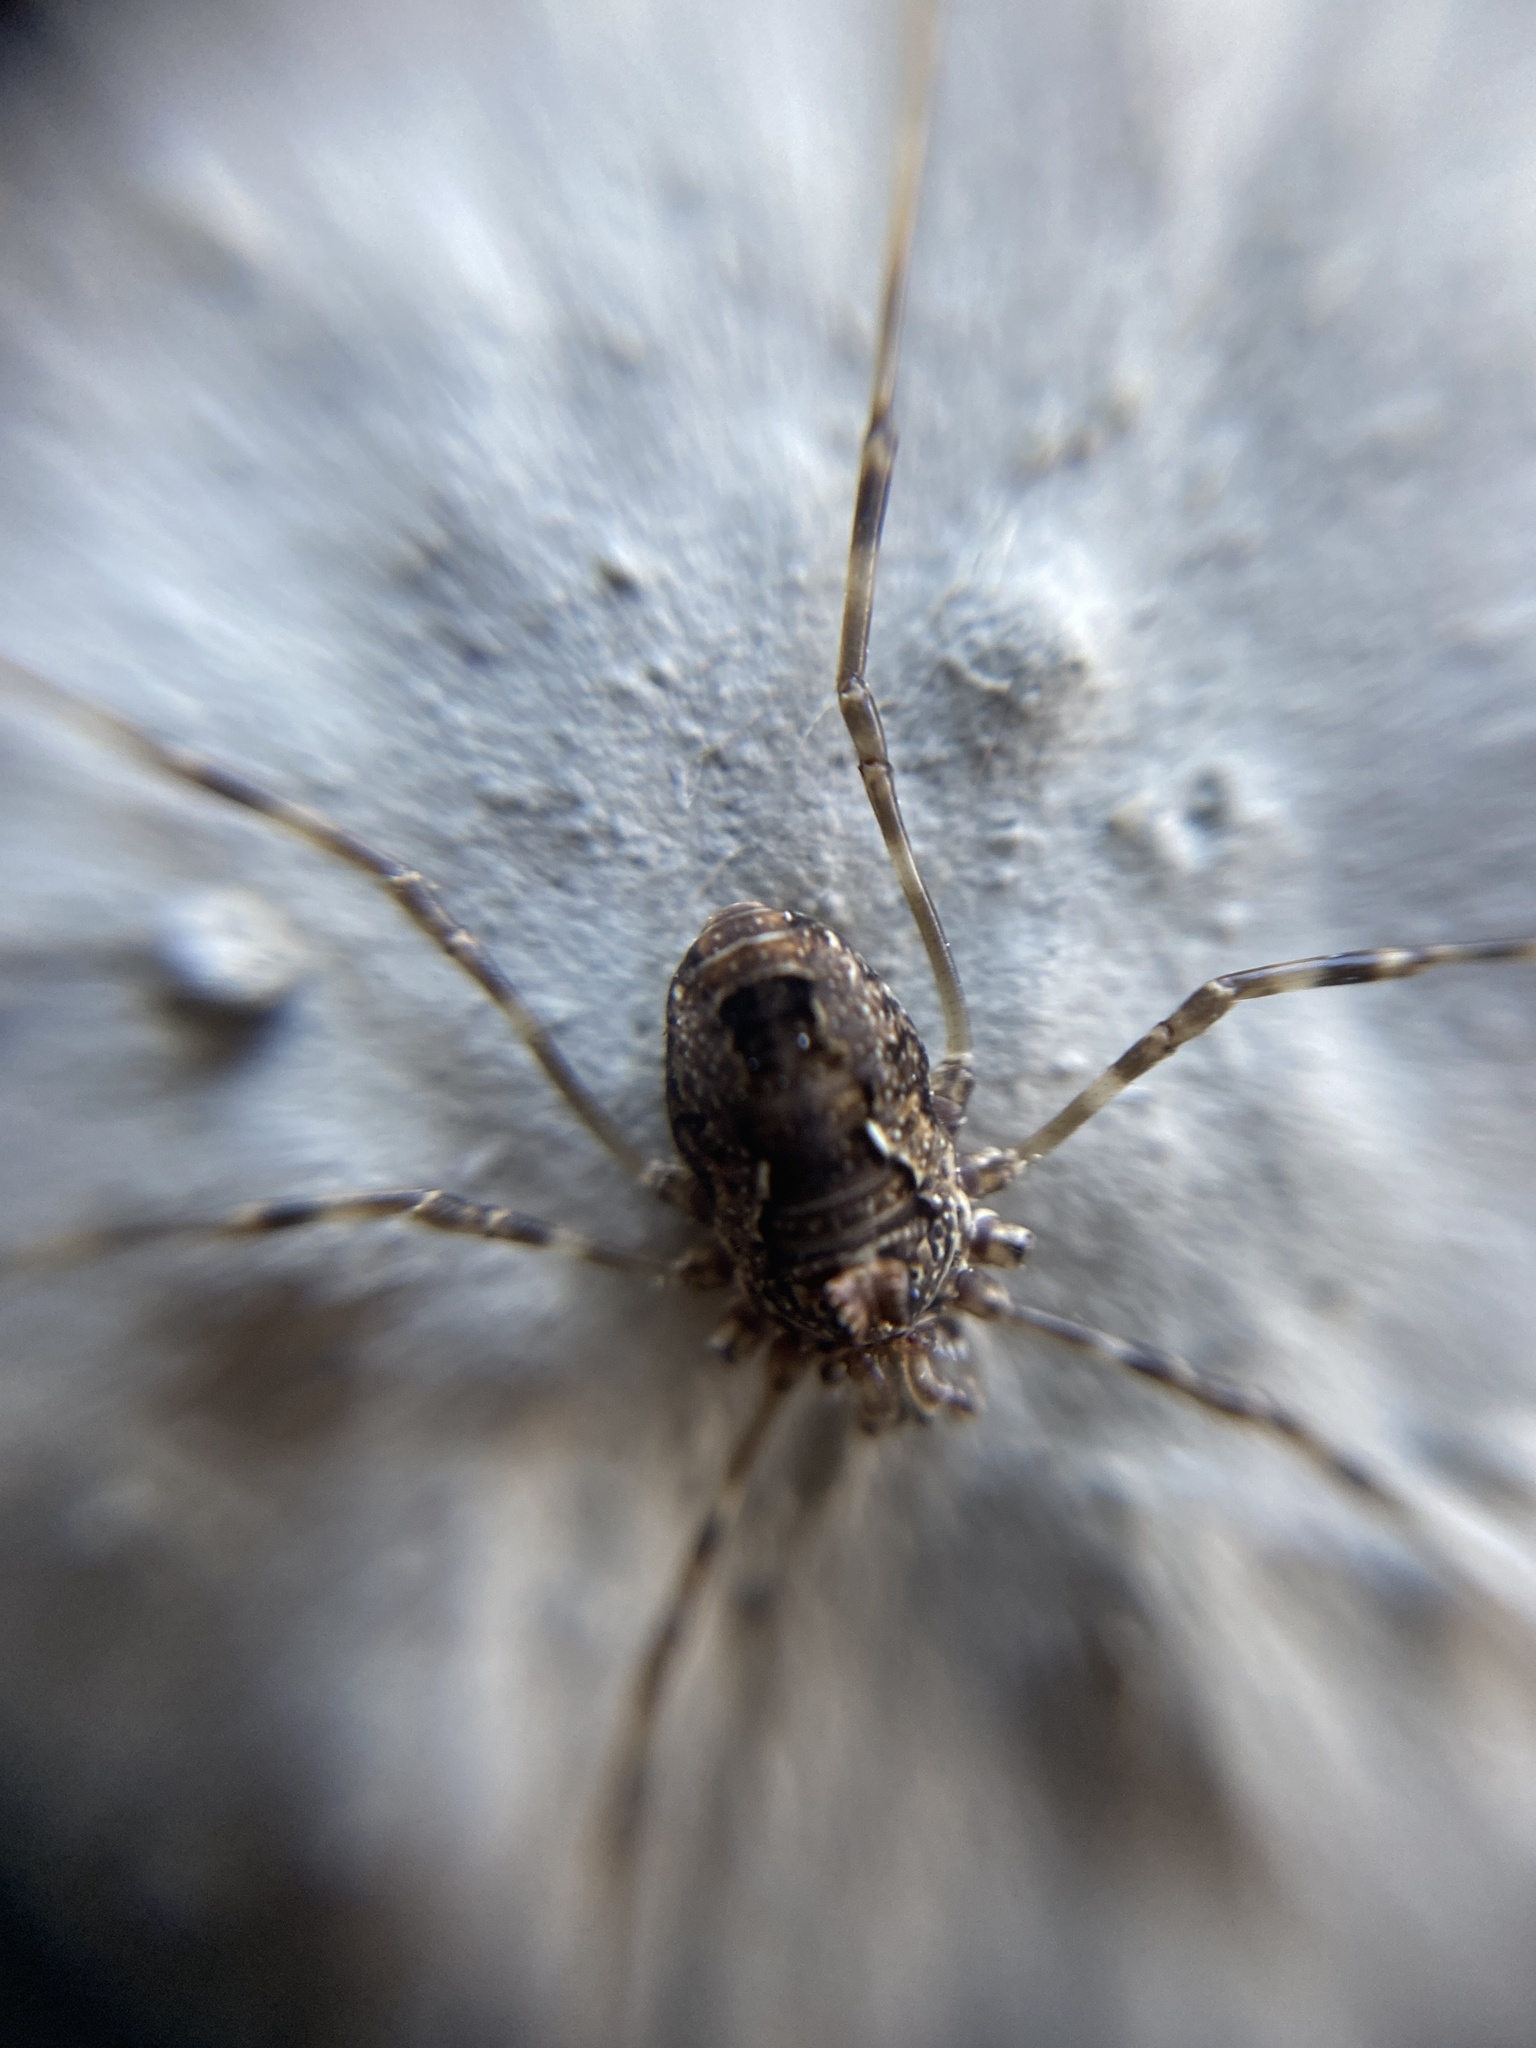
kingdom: Animalia
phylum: Arthropoda
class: Arachnida
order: Opiliones
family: Phalangiidae
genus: Platybunus
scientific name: Platybunus pinetorum
